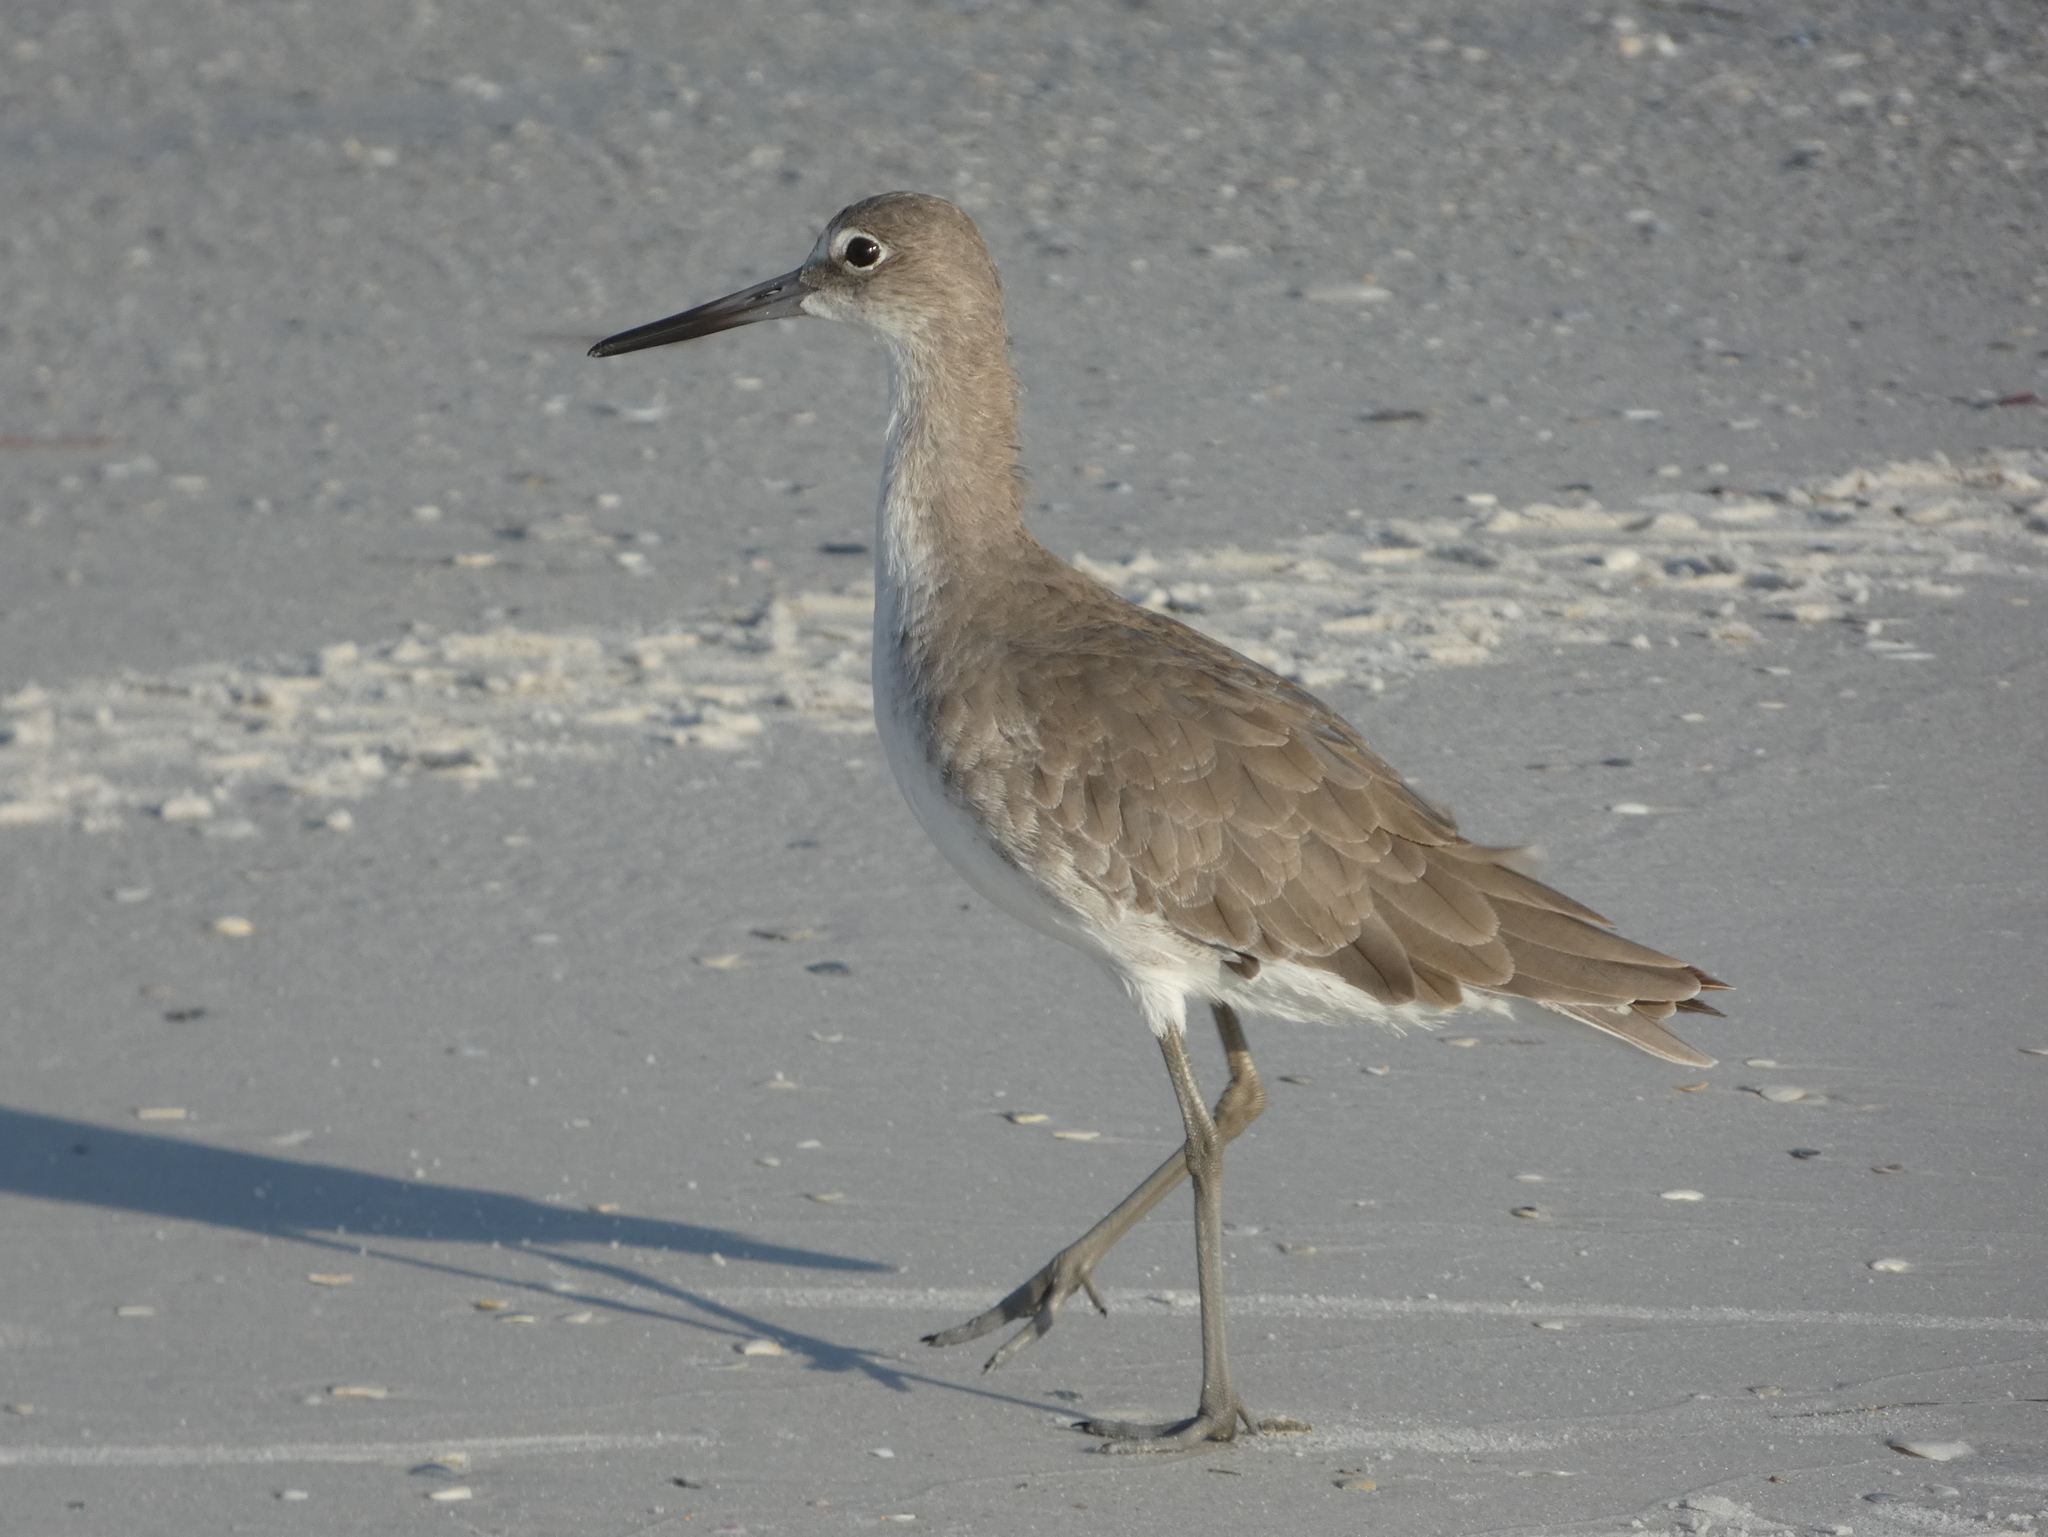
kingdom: Animalia
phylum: Chordata
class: Aves
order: Charadriiformes
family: Scolopacidae
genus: Tringa
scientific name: Tringa semipalmata
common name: Willet
